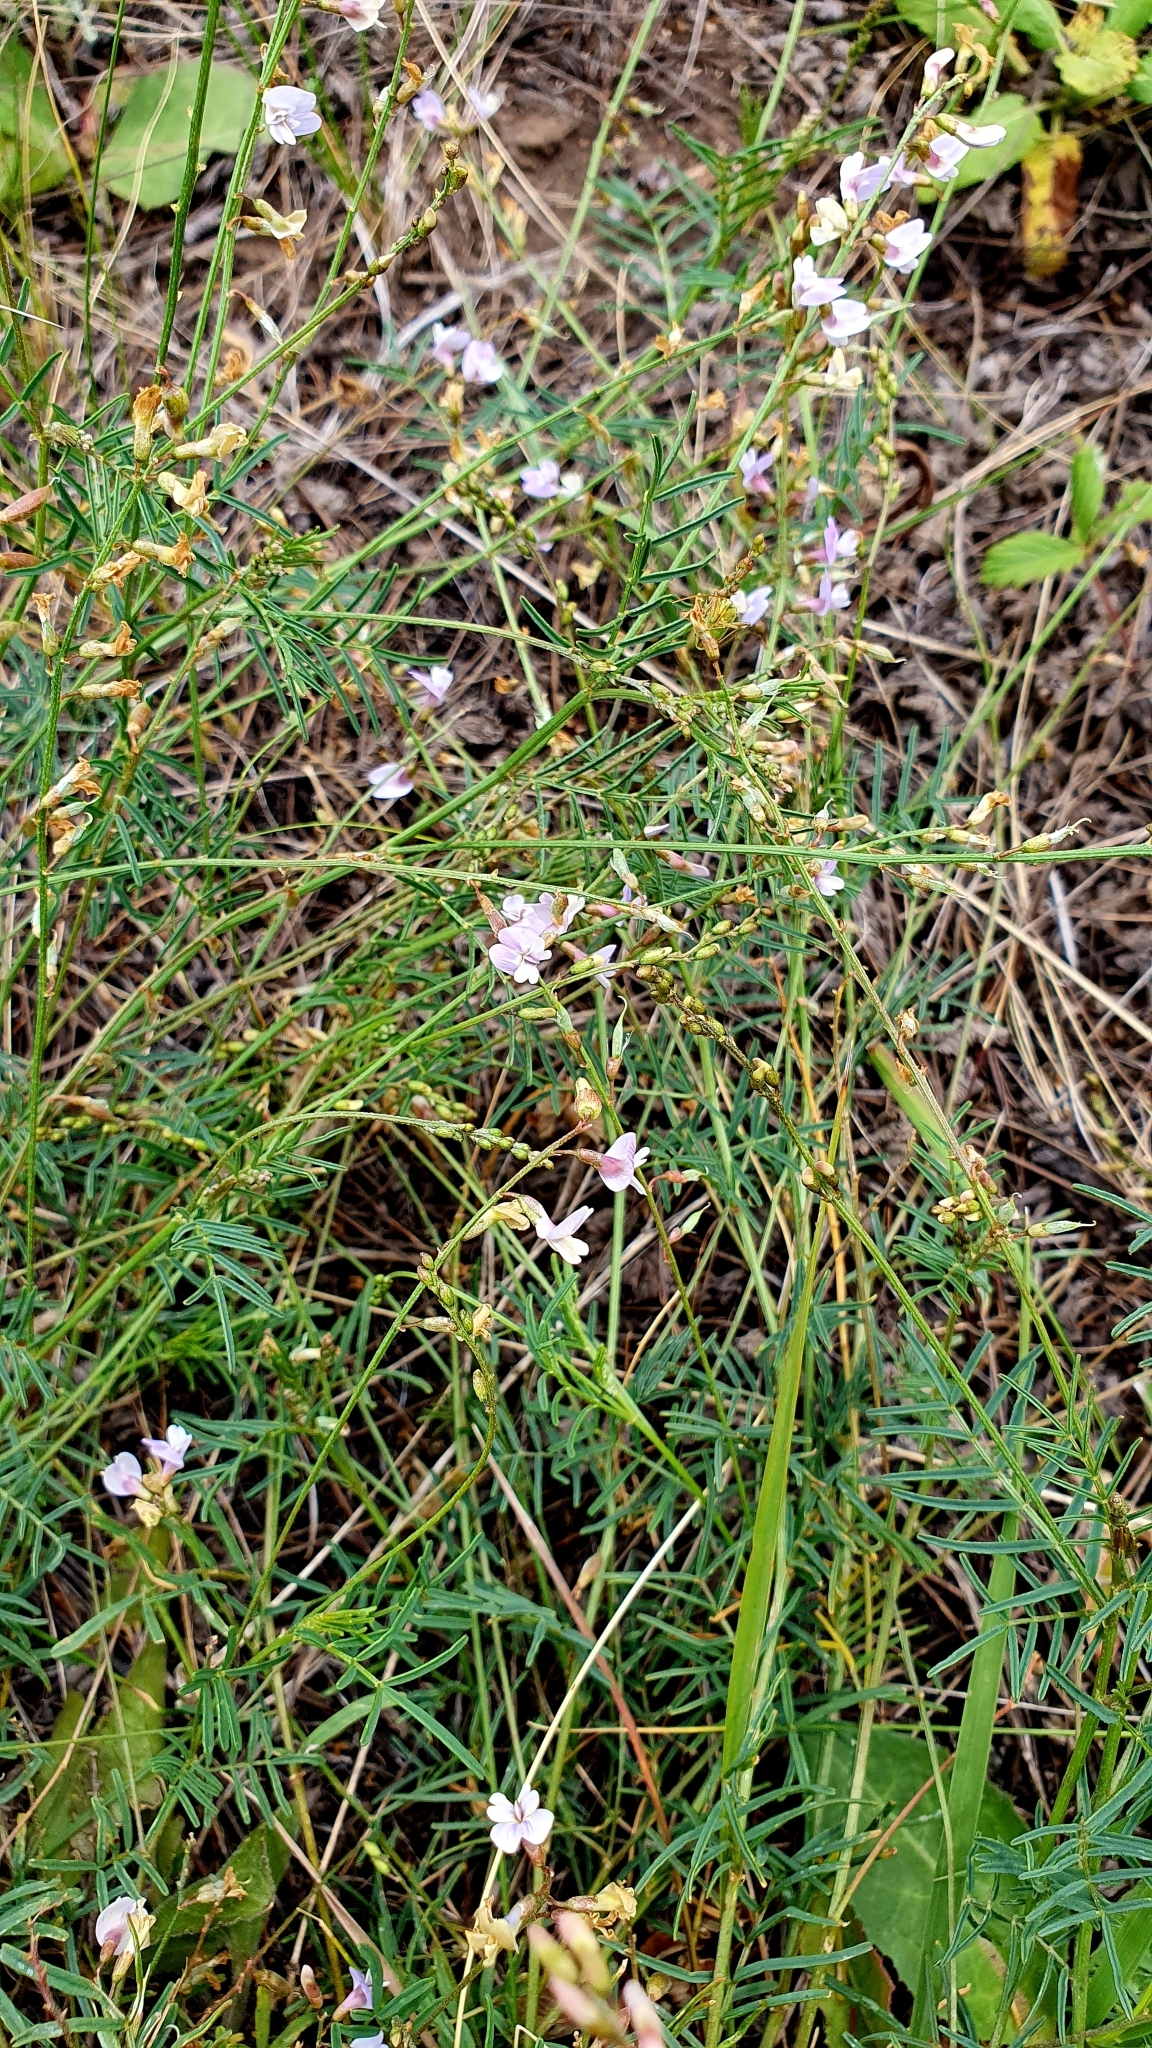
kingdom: Plantae
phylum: Tracheophyta
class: Magnoliopsida
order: Fabales
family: Fabaceae
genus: Astragalus
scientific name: Astragalus austriacus
